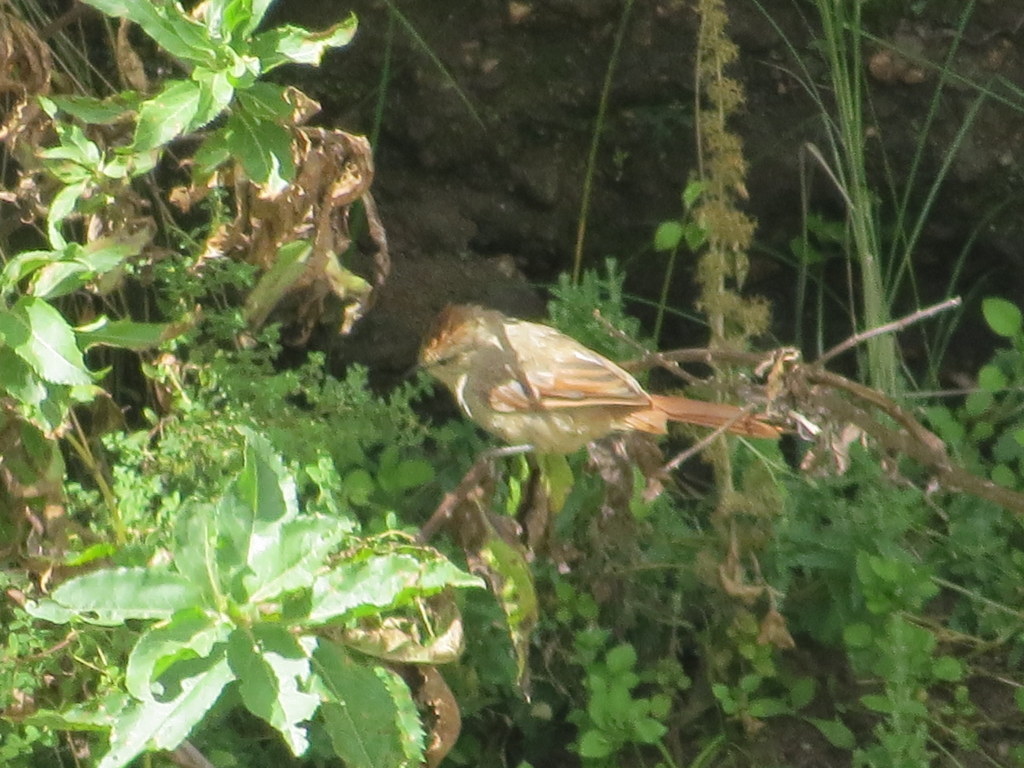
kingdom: Animalia
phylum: Chordata
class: Aves
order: Passeriformes
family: Furnariidae
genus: Leptasthenura
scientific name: Leptasthenura fuliginiceps
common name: Brown-capped tit-spinetail
